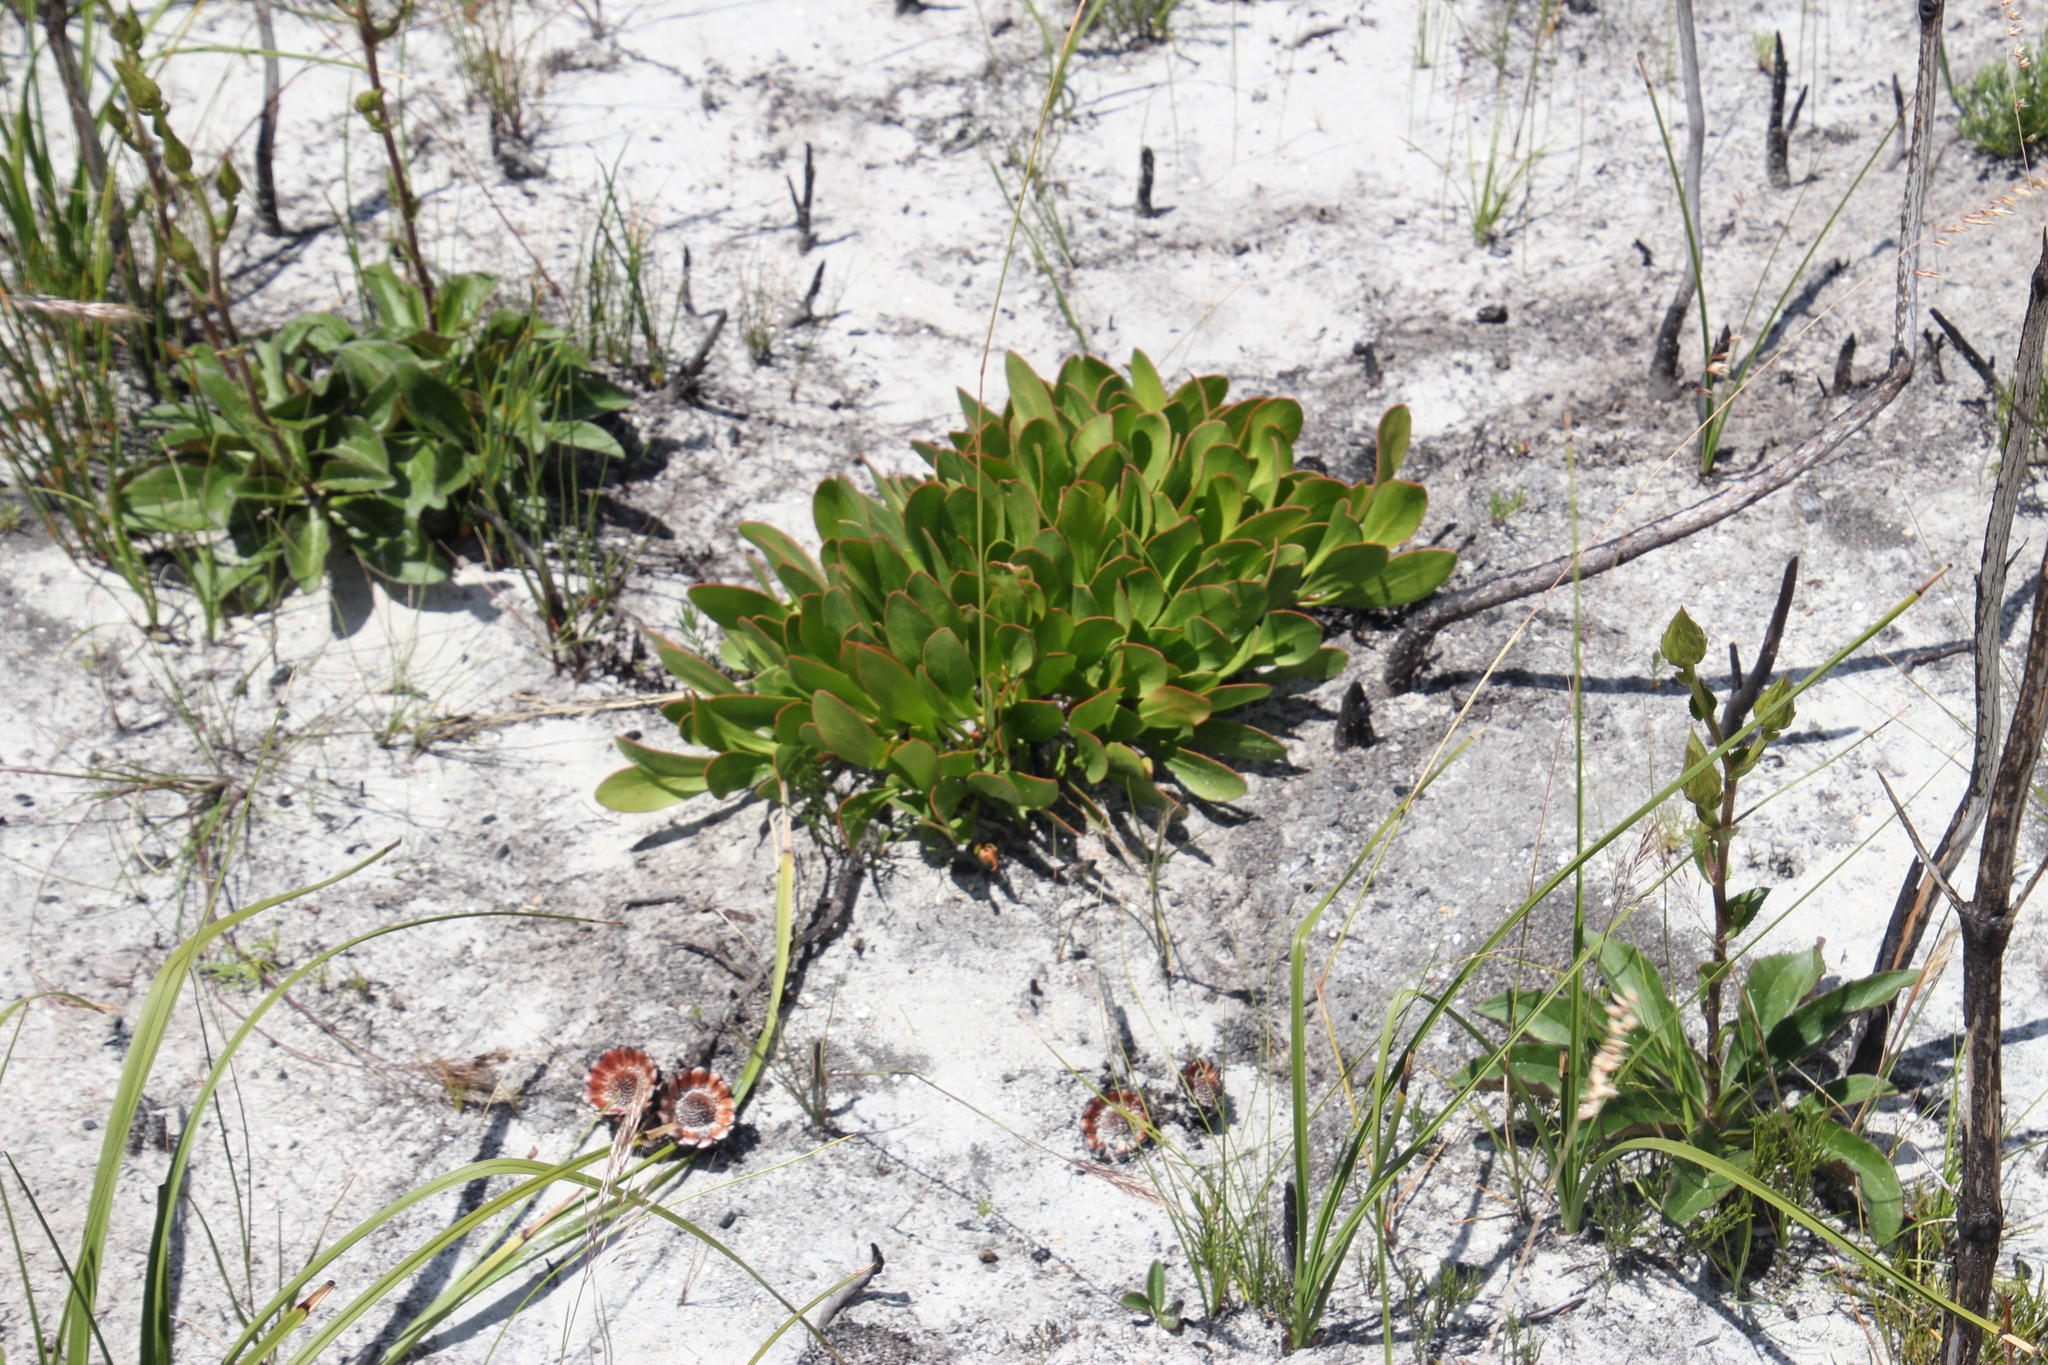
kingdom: Plantae
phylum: Tracheophyta
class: Magnoliopsida
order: Proteales
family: Proteaceae
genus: Protea
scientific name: Protea acaulos
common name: Common ground sugarbush
